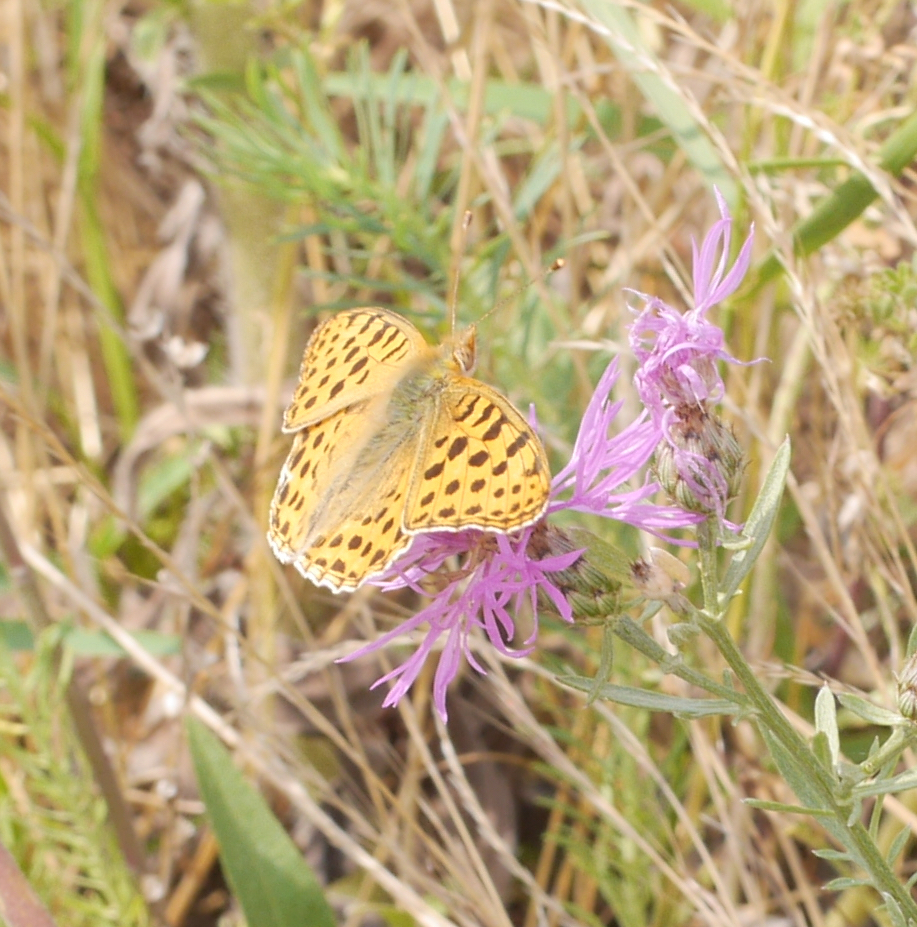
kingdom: Animalia
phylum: Arthropoda
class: Insecta
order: Lepidoptera
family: Nymphalidae
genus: Issoria
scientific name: Issoria lathonia
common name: Queen of spain fritillary
